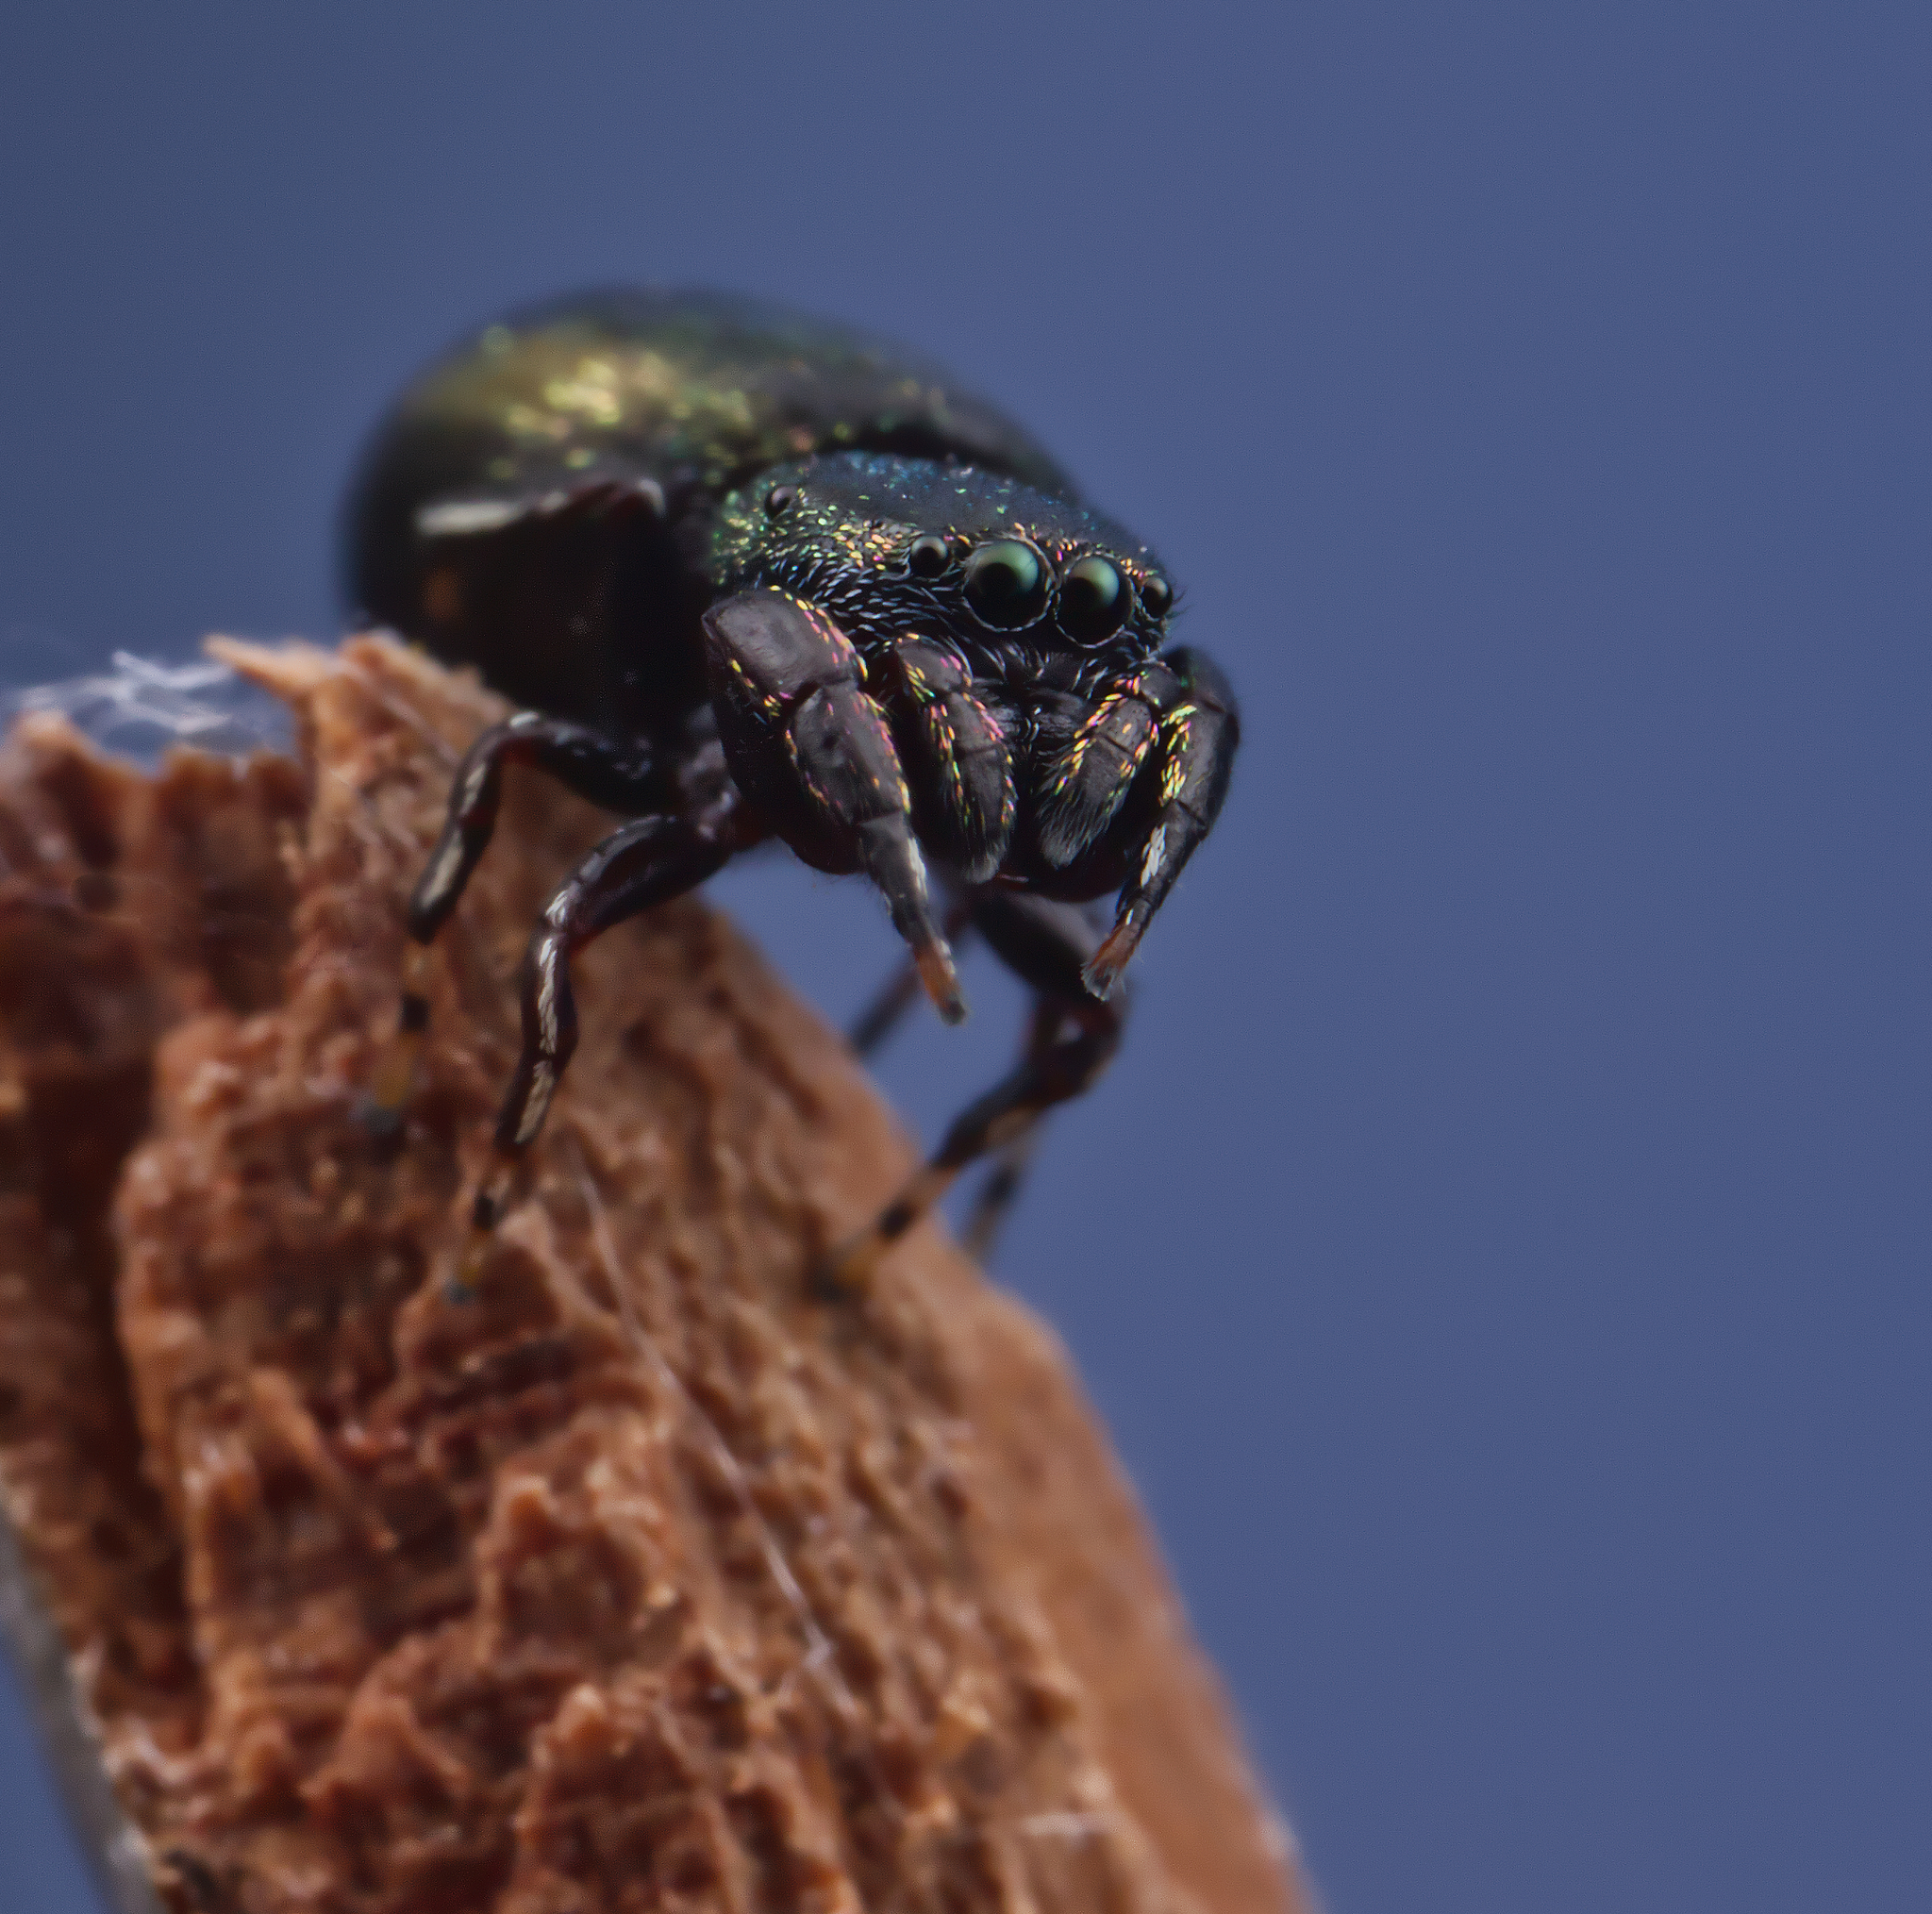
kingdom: Animalia
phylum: Arthropoda
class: Arachnida
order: Araneae
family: Salticidae
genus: Sassacus
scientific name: Sassacus cyaneus
